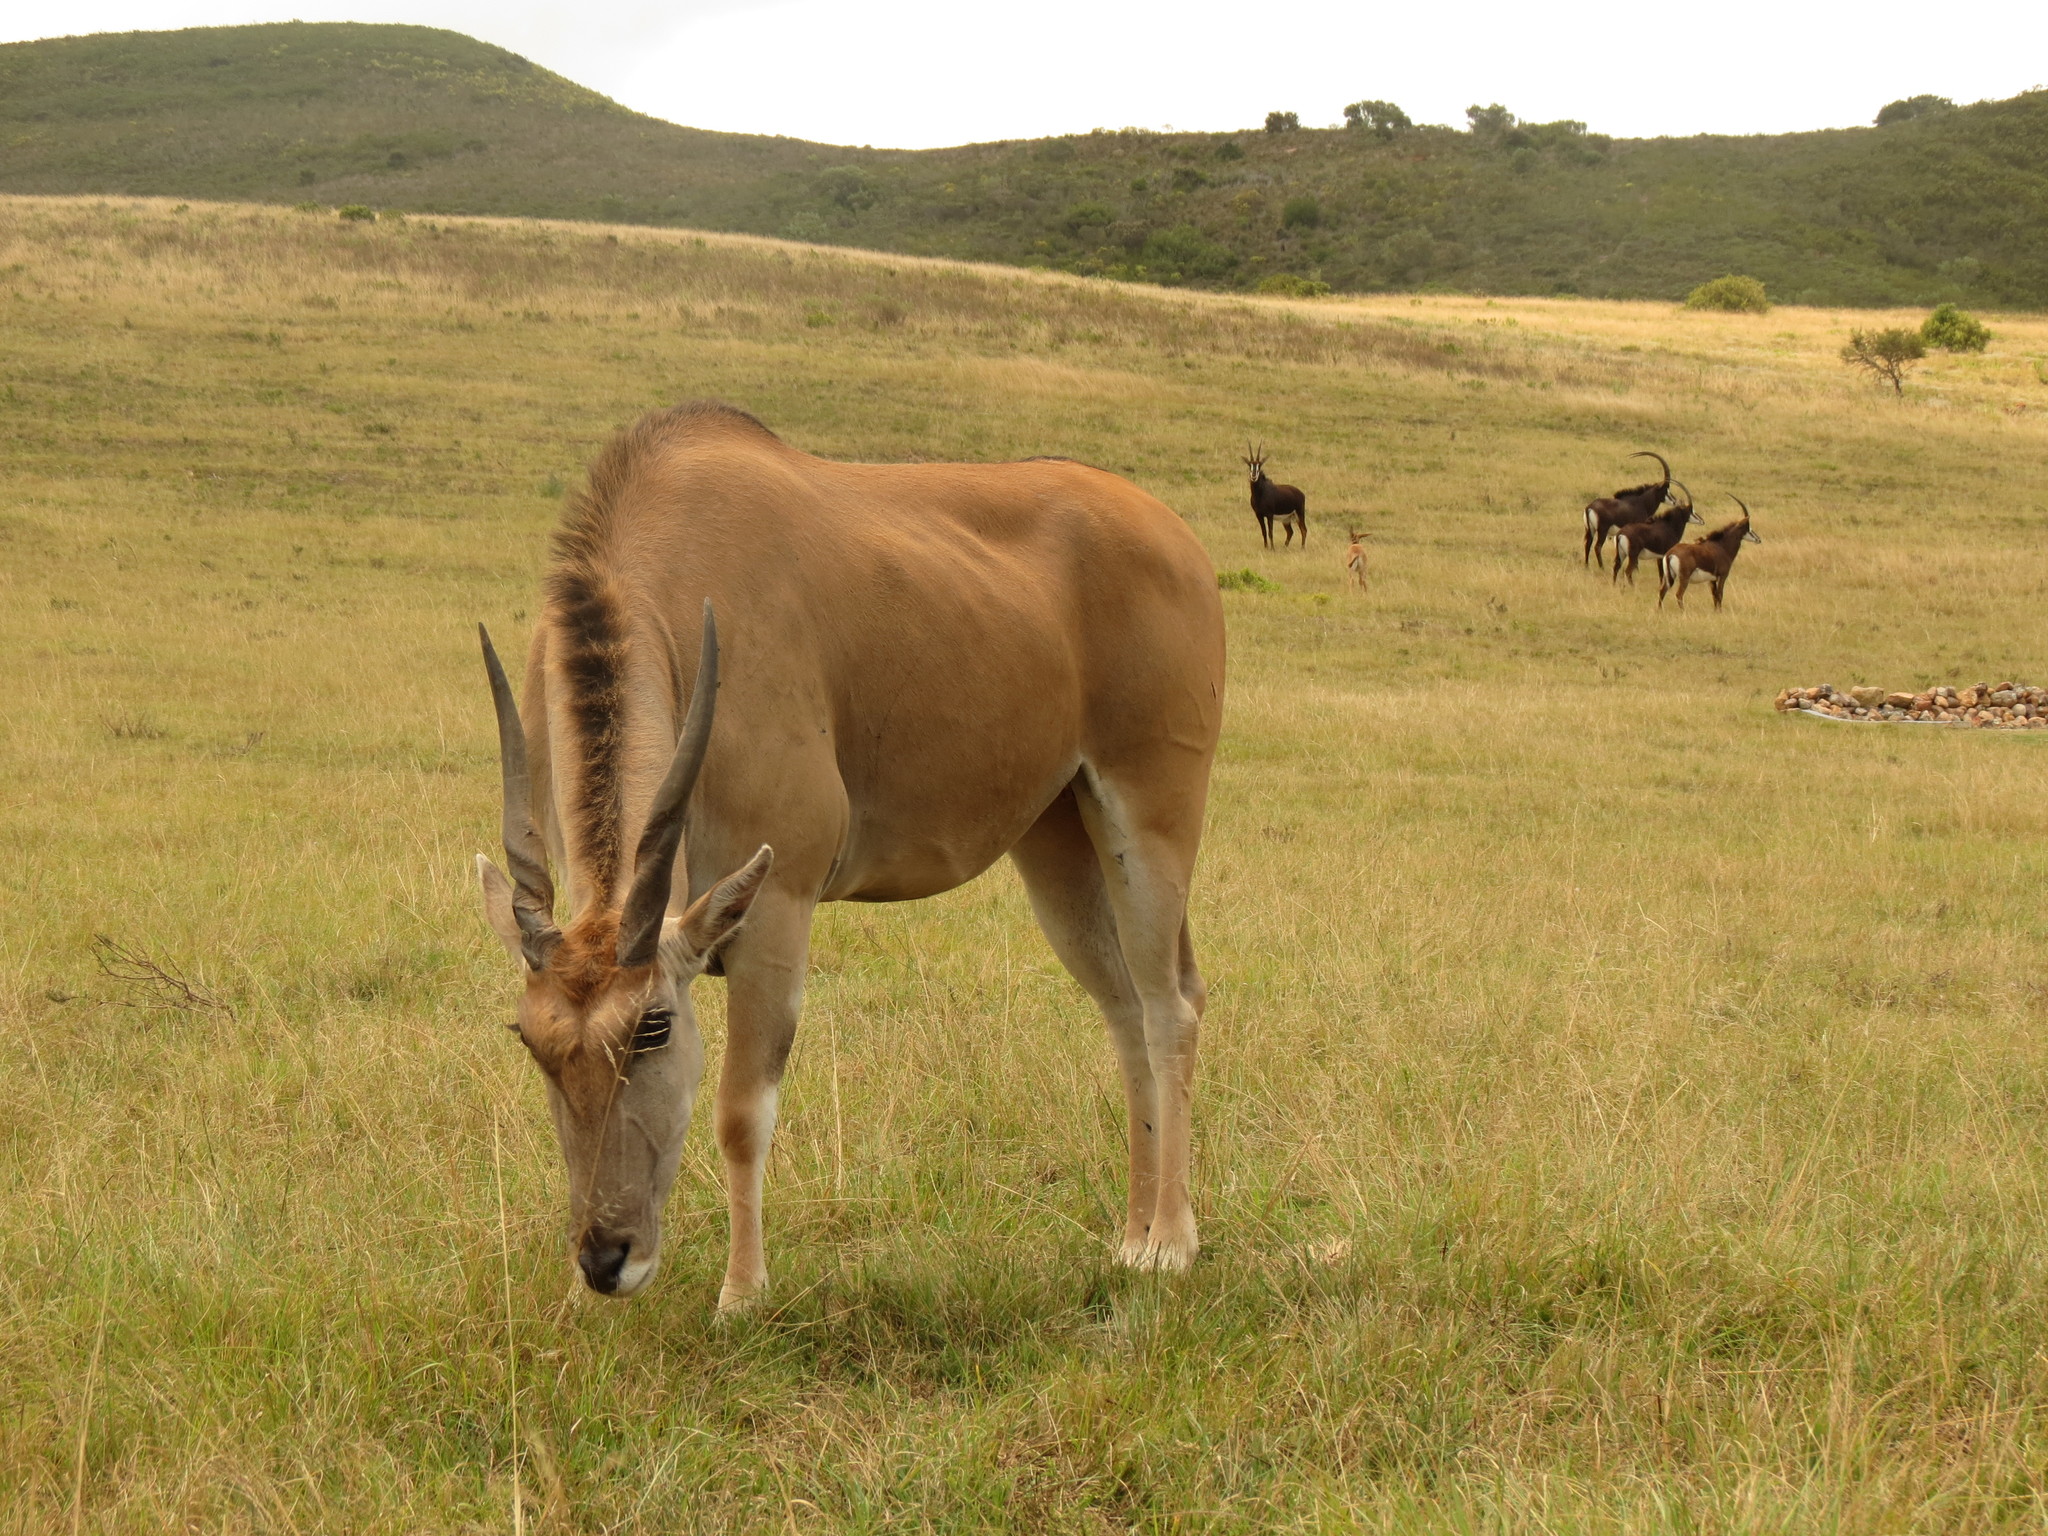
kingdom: Animalia
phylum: Chordata
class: Mammalia
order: Artiodactyla
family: Bovidae
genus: Taurotragus
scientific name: Taurotragus oryx
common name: Common eland
